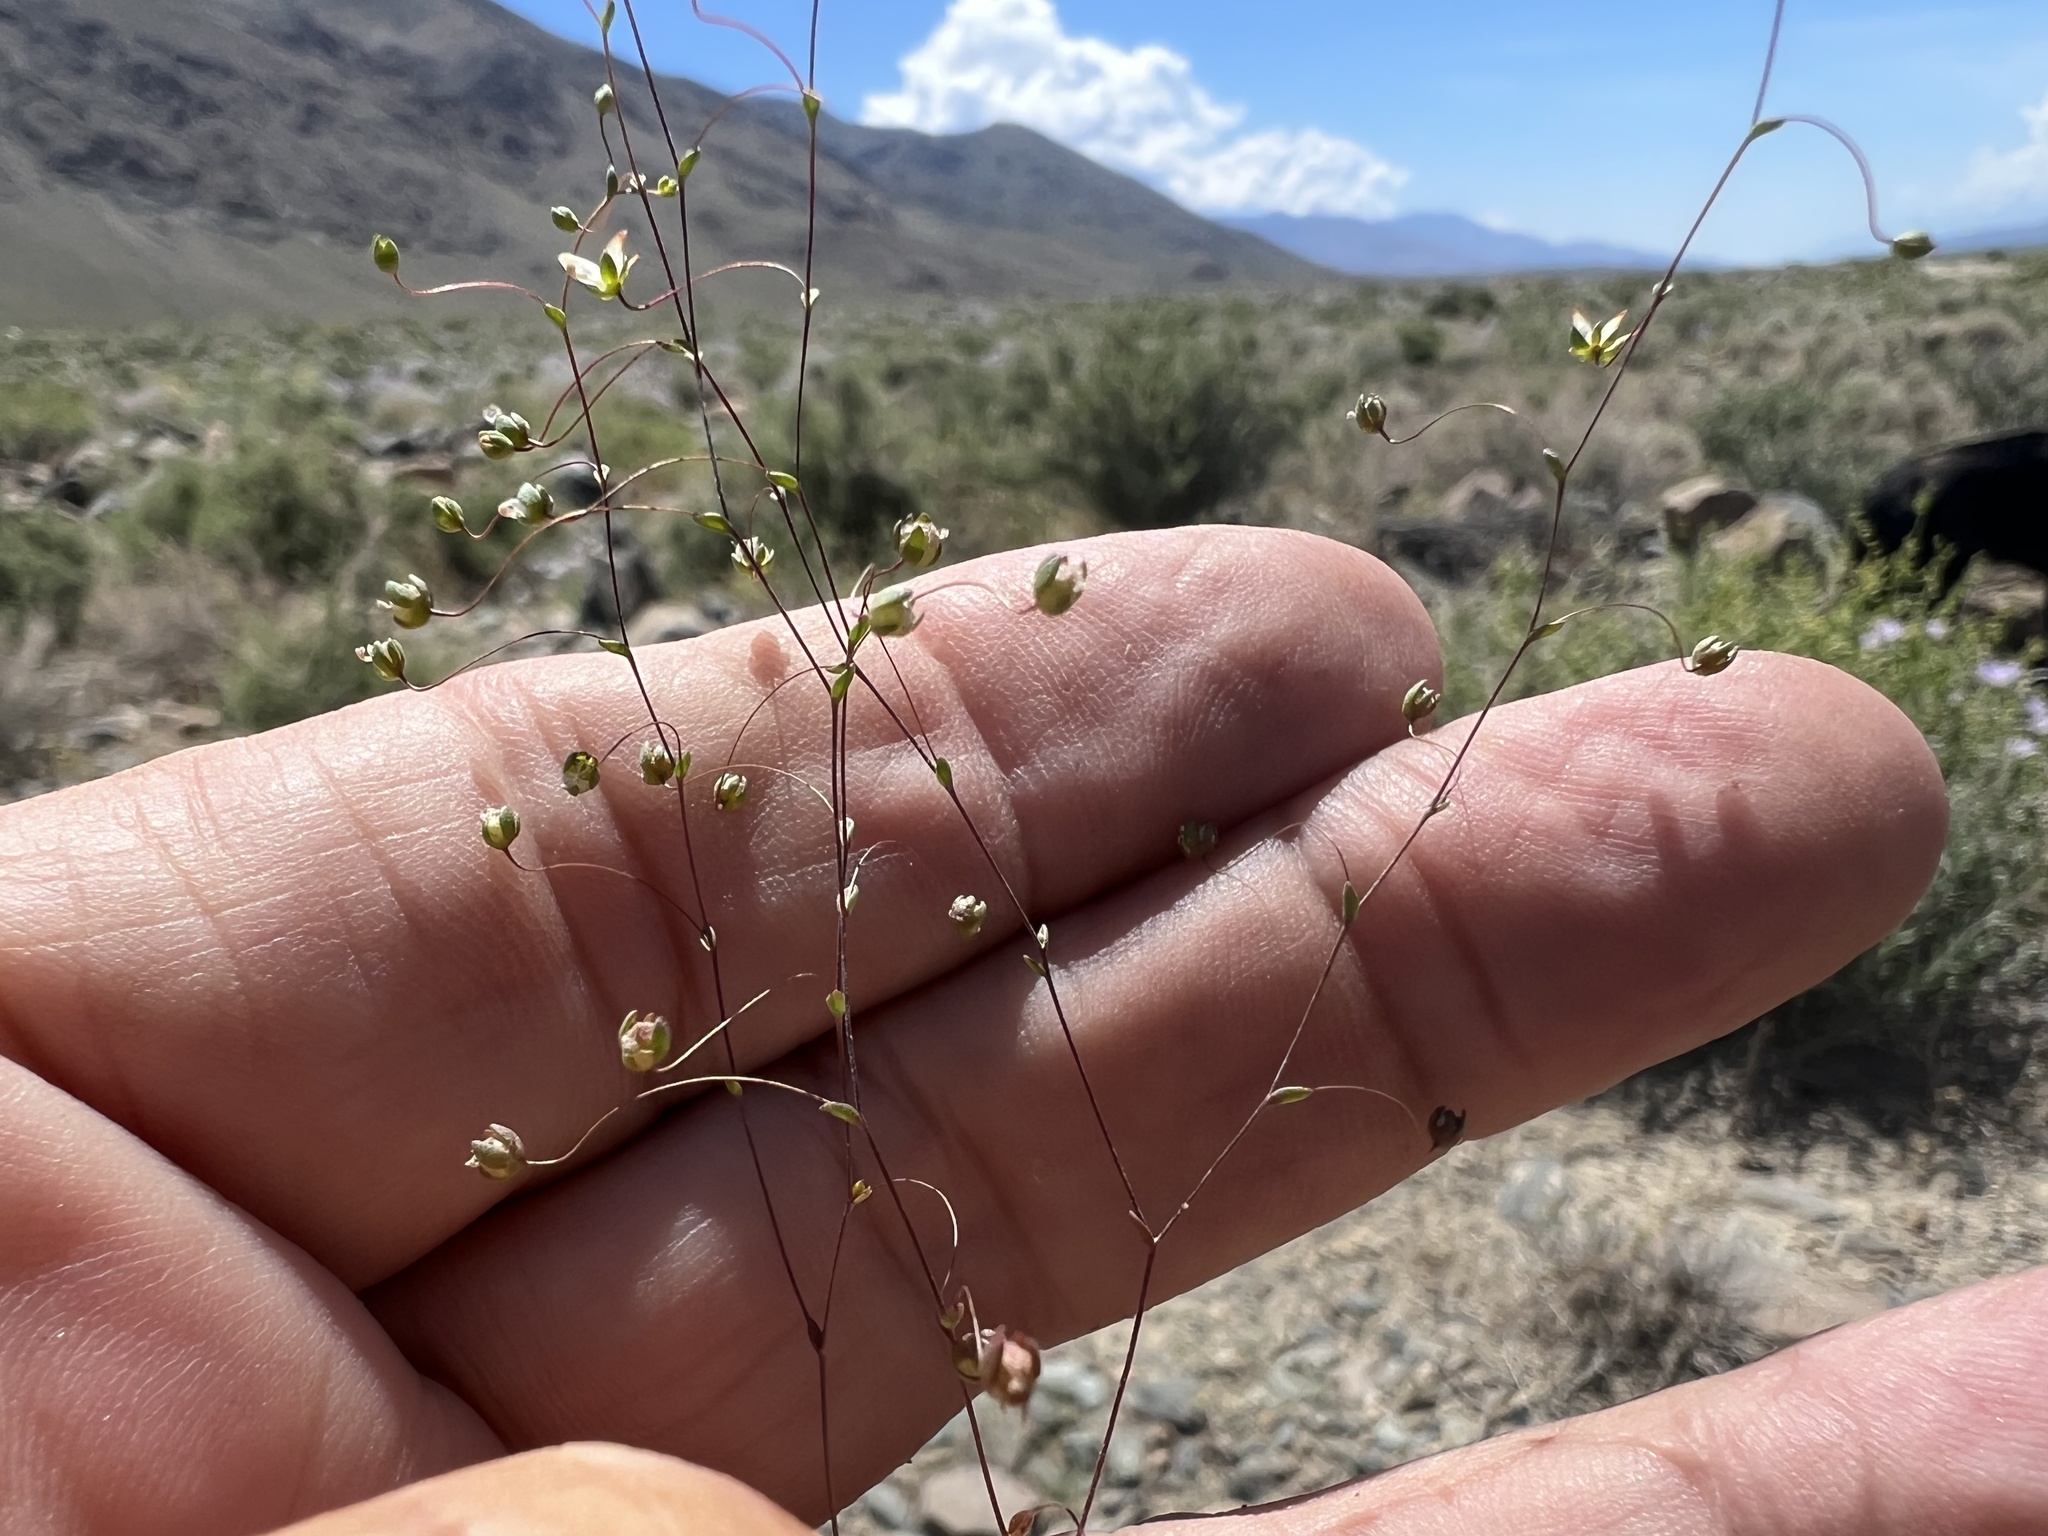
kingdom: Plantae
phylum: Tracheophyta
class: Magnoliopsida
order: Asterales
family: Campanulaceae
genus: Nemacladus
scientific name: Nemacladus morefieldii
